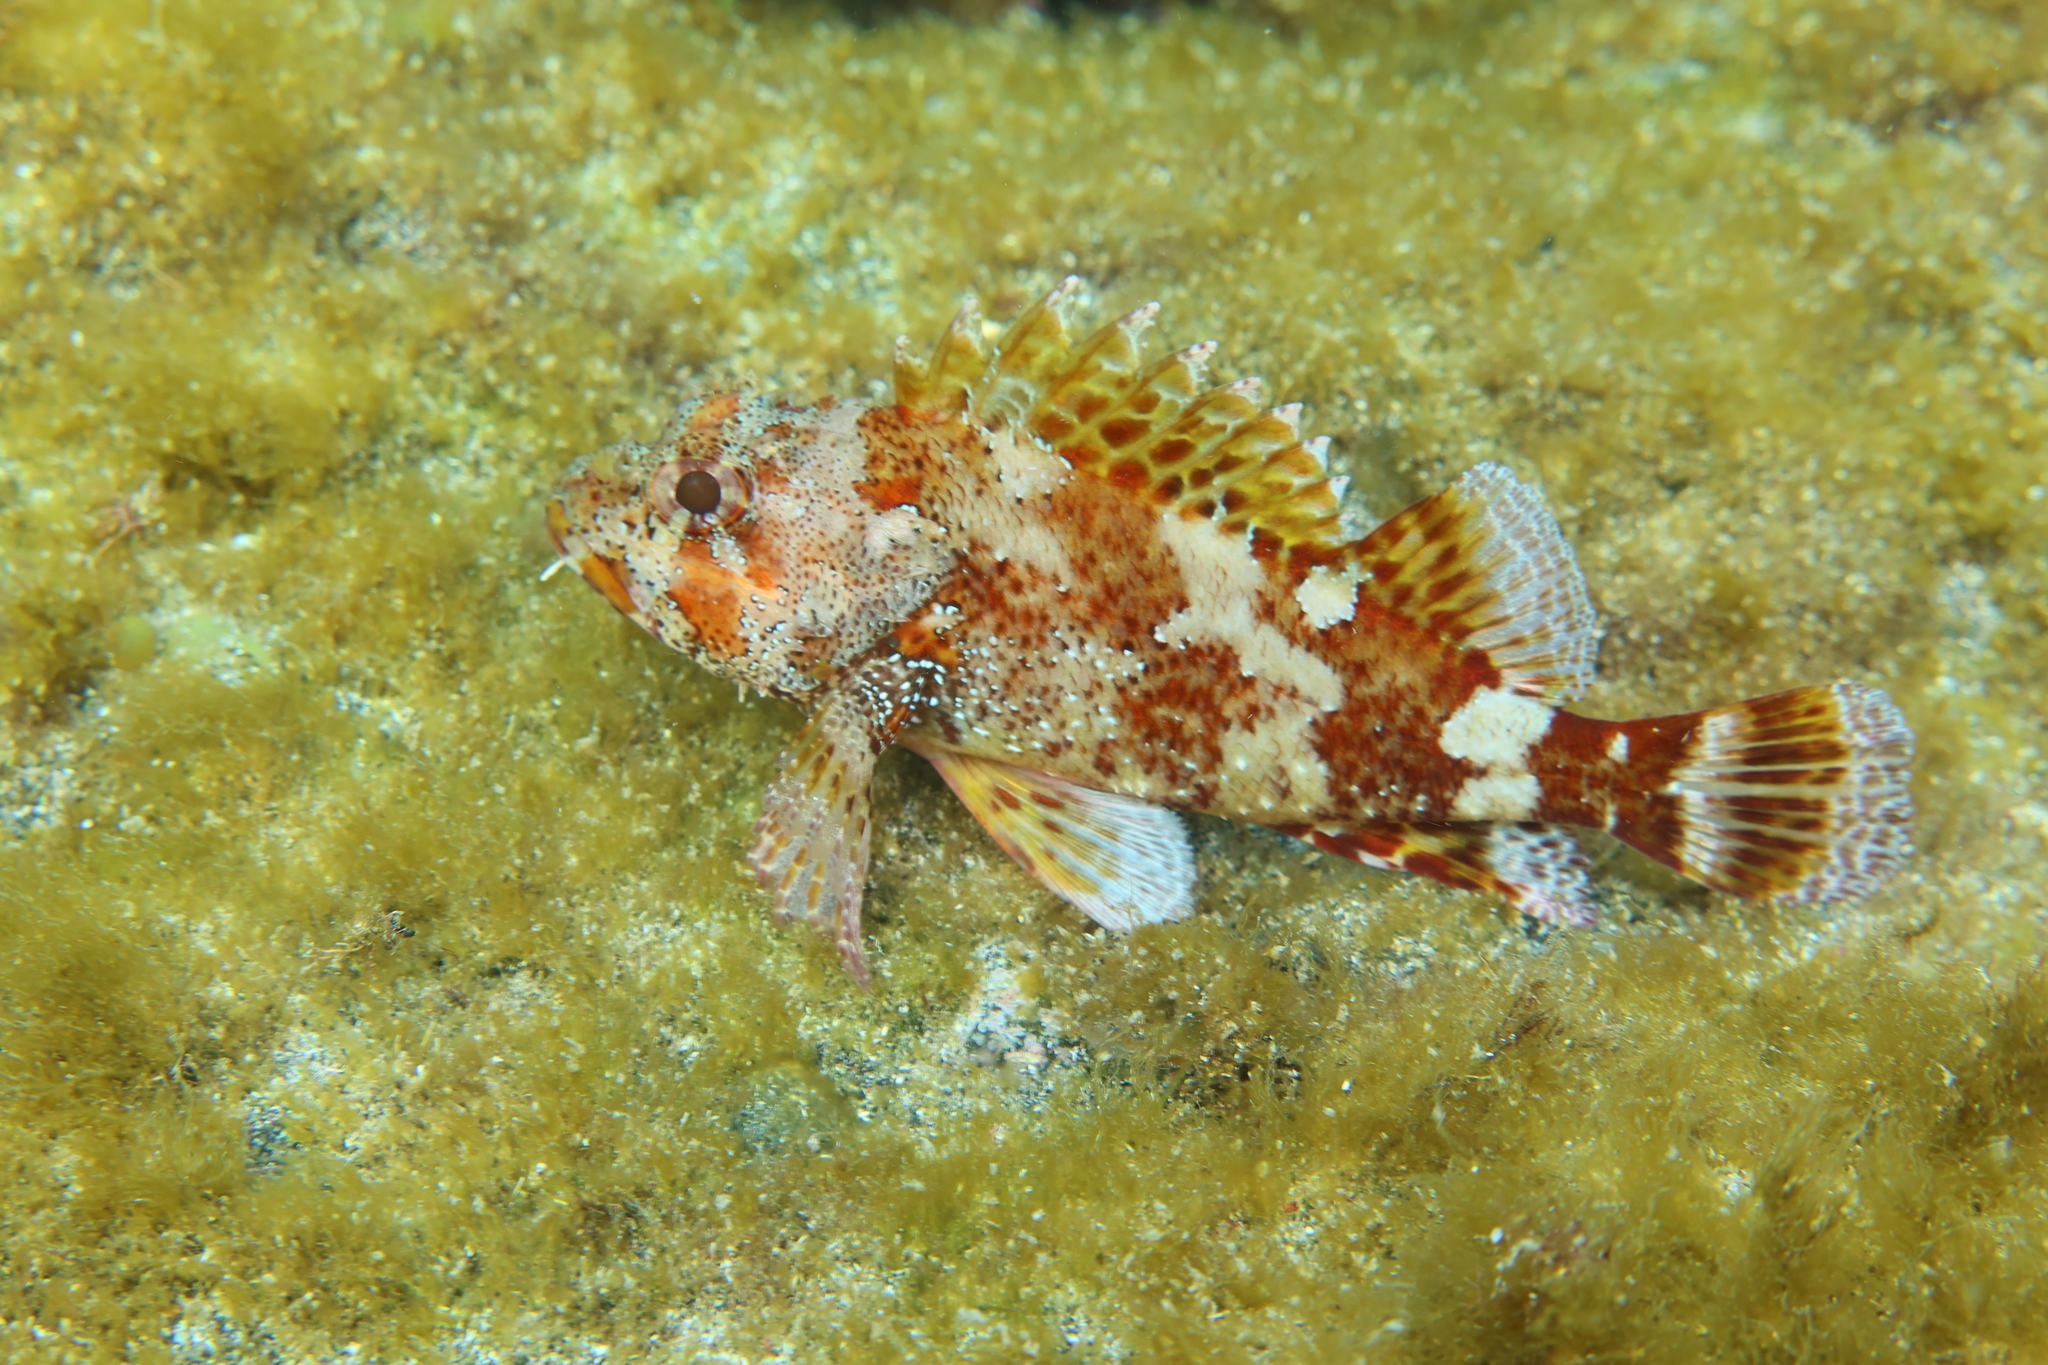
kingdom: Animalia
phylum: Chordata
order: Scorpaeniformes
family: Scorpaenidae
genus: Scorpaena
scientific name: Scorpaena maderensis
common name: Madeira rockfish
